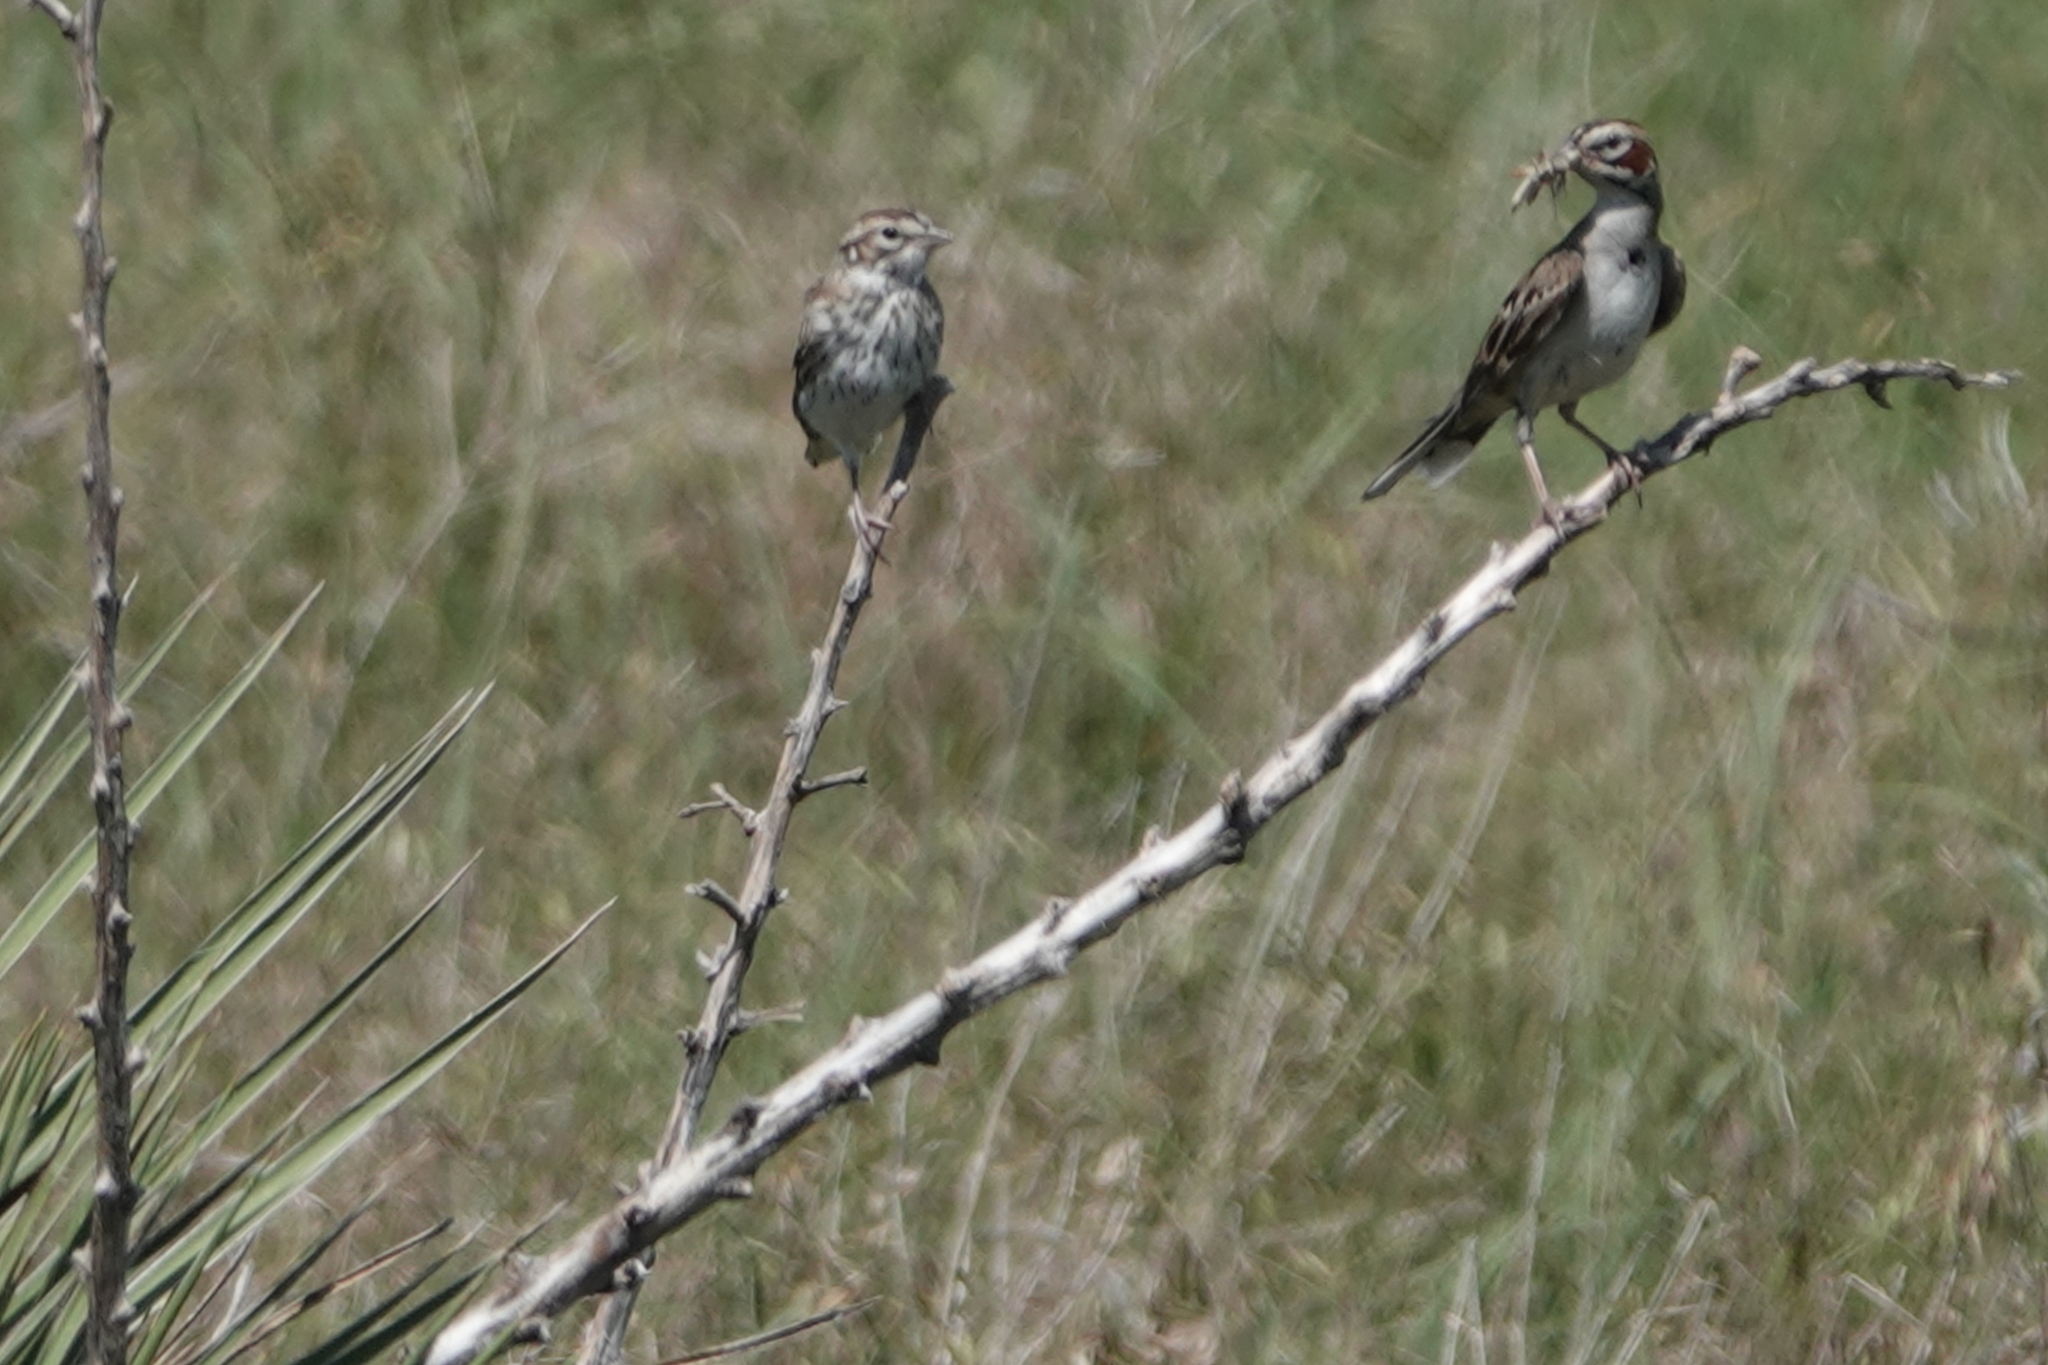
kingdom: Animalia
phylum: Chordata
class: Aves
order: Passeriformes
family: Passerellidae
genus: Chondestes
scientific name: Chondestes grammacus
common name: Lark sparrow
